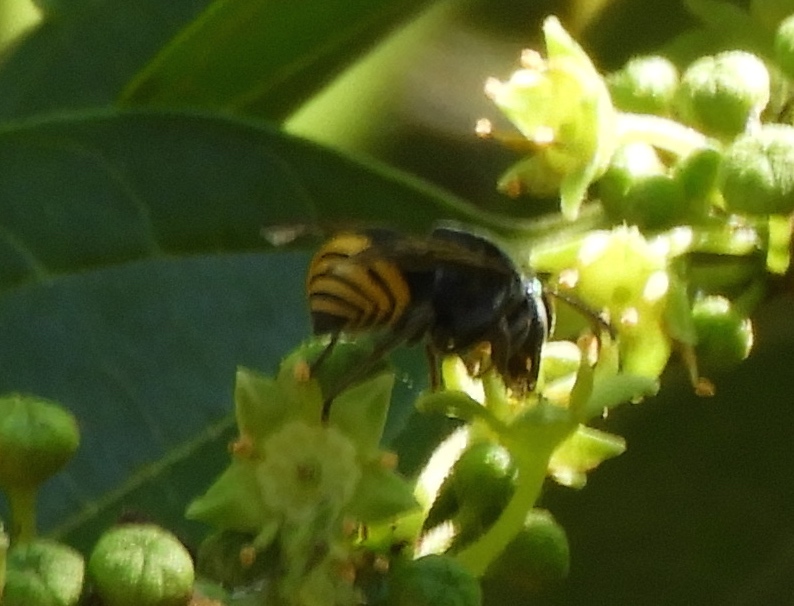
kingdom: Animalia
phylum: Arthropoda
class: Insecta
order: Hymenoptera
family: Vespidae
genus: Brachygastra
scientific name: Brachygastra azteca
